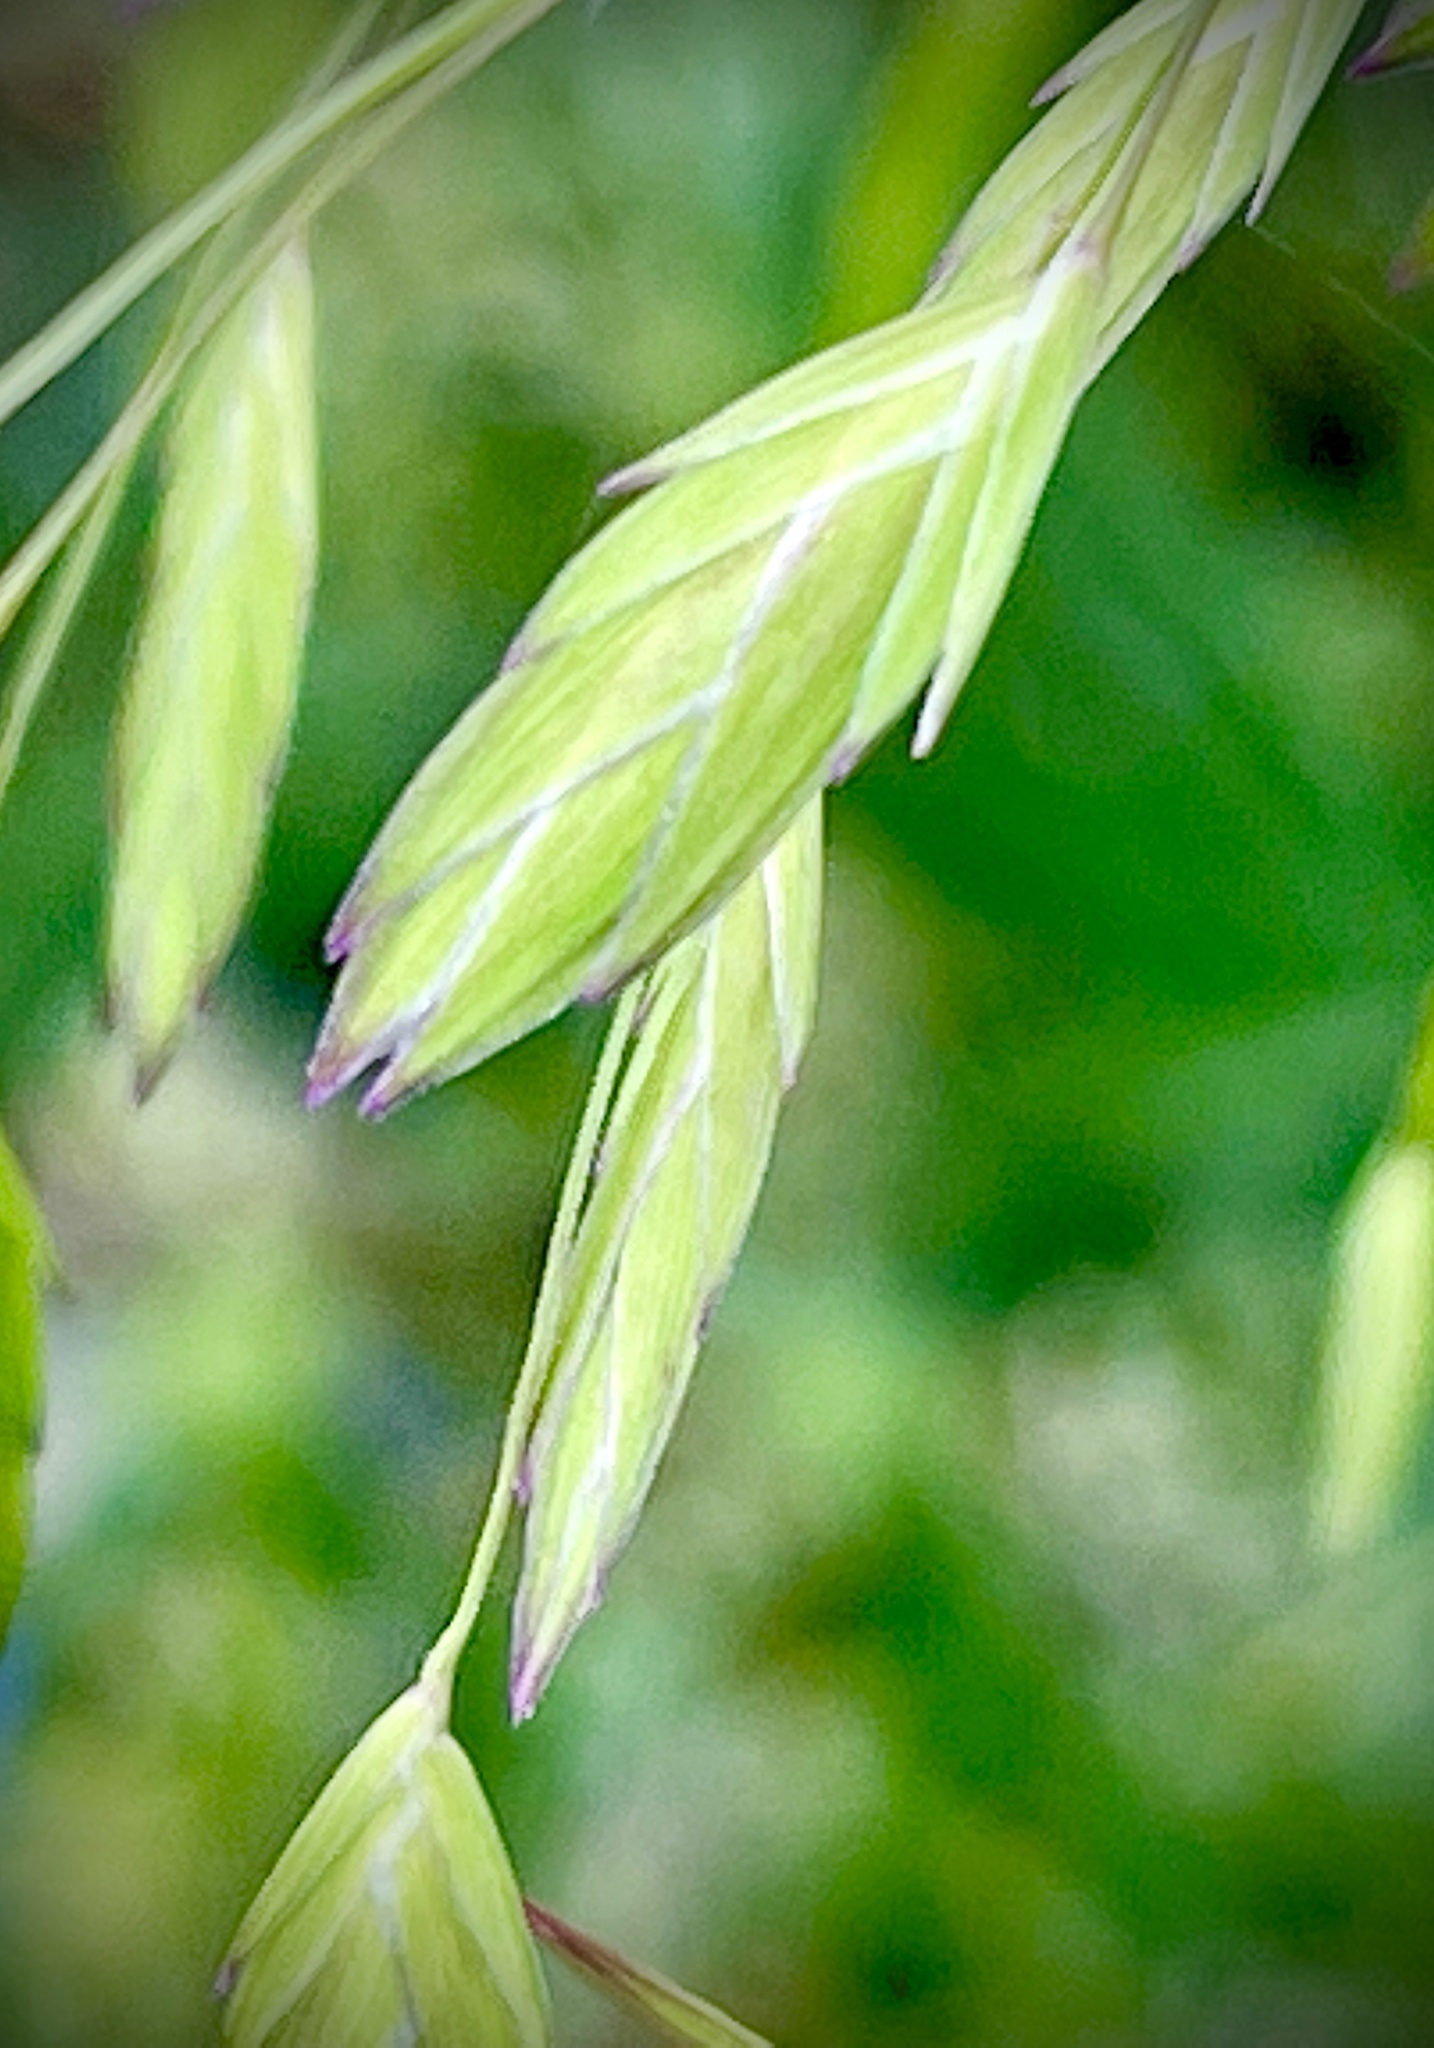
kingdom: Plantae
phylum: Tracheophyta
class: Liliopsida
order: Poales
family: Poaceae
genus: Chasmanthium
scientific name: Chasmanthium latifolium
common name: Broad-leaved chasmanthium
